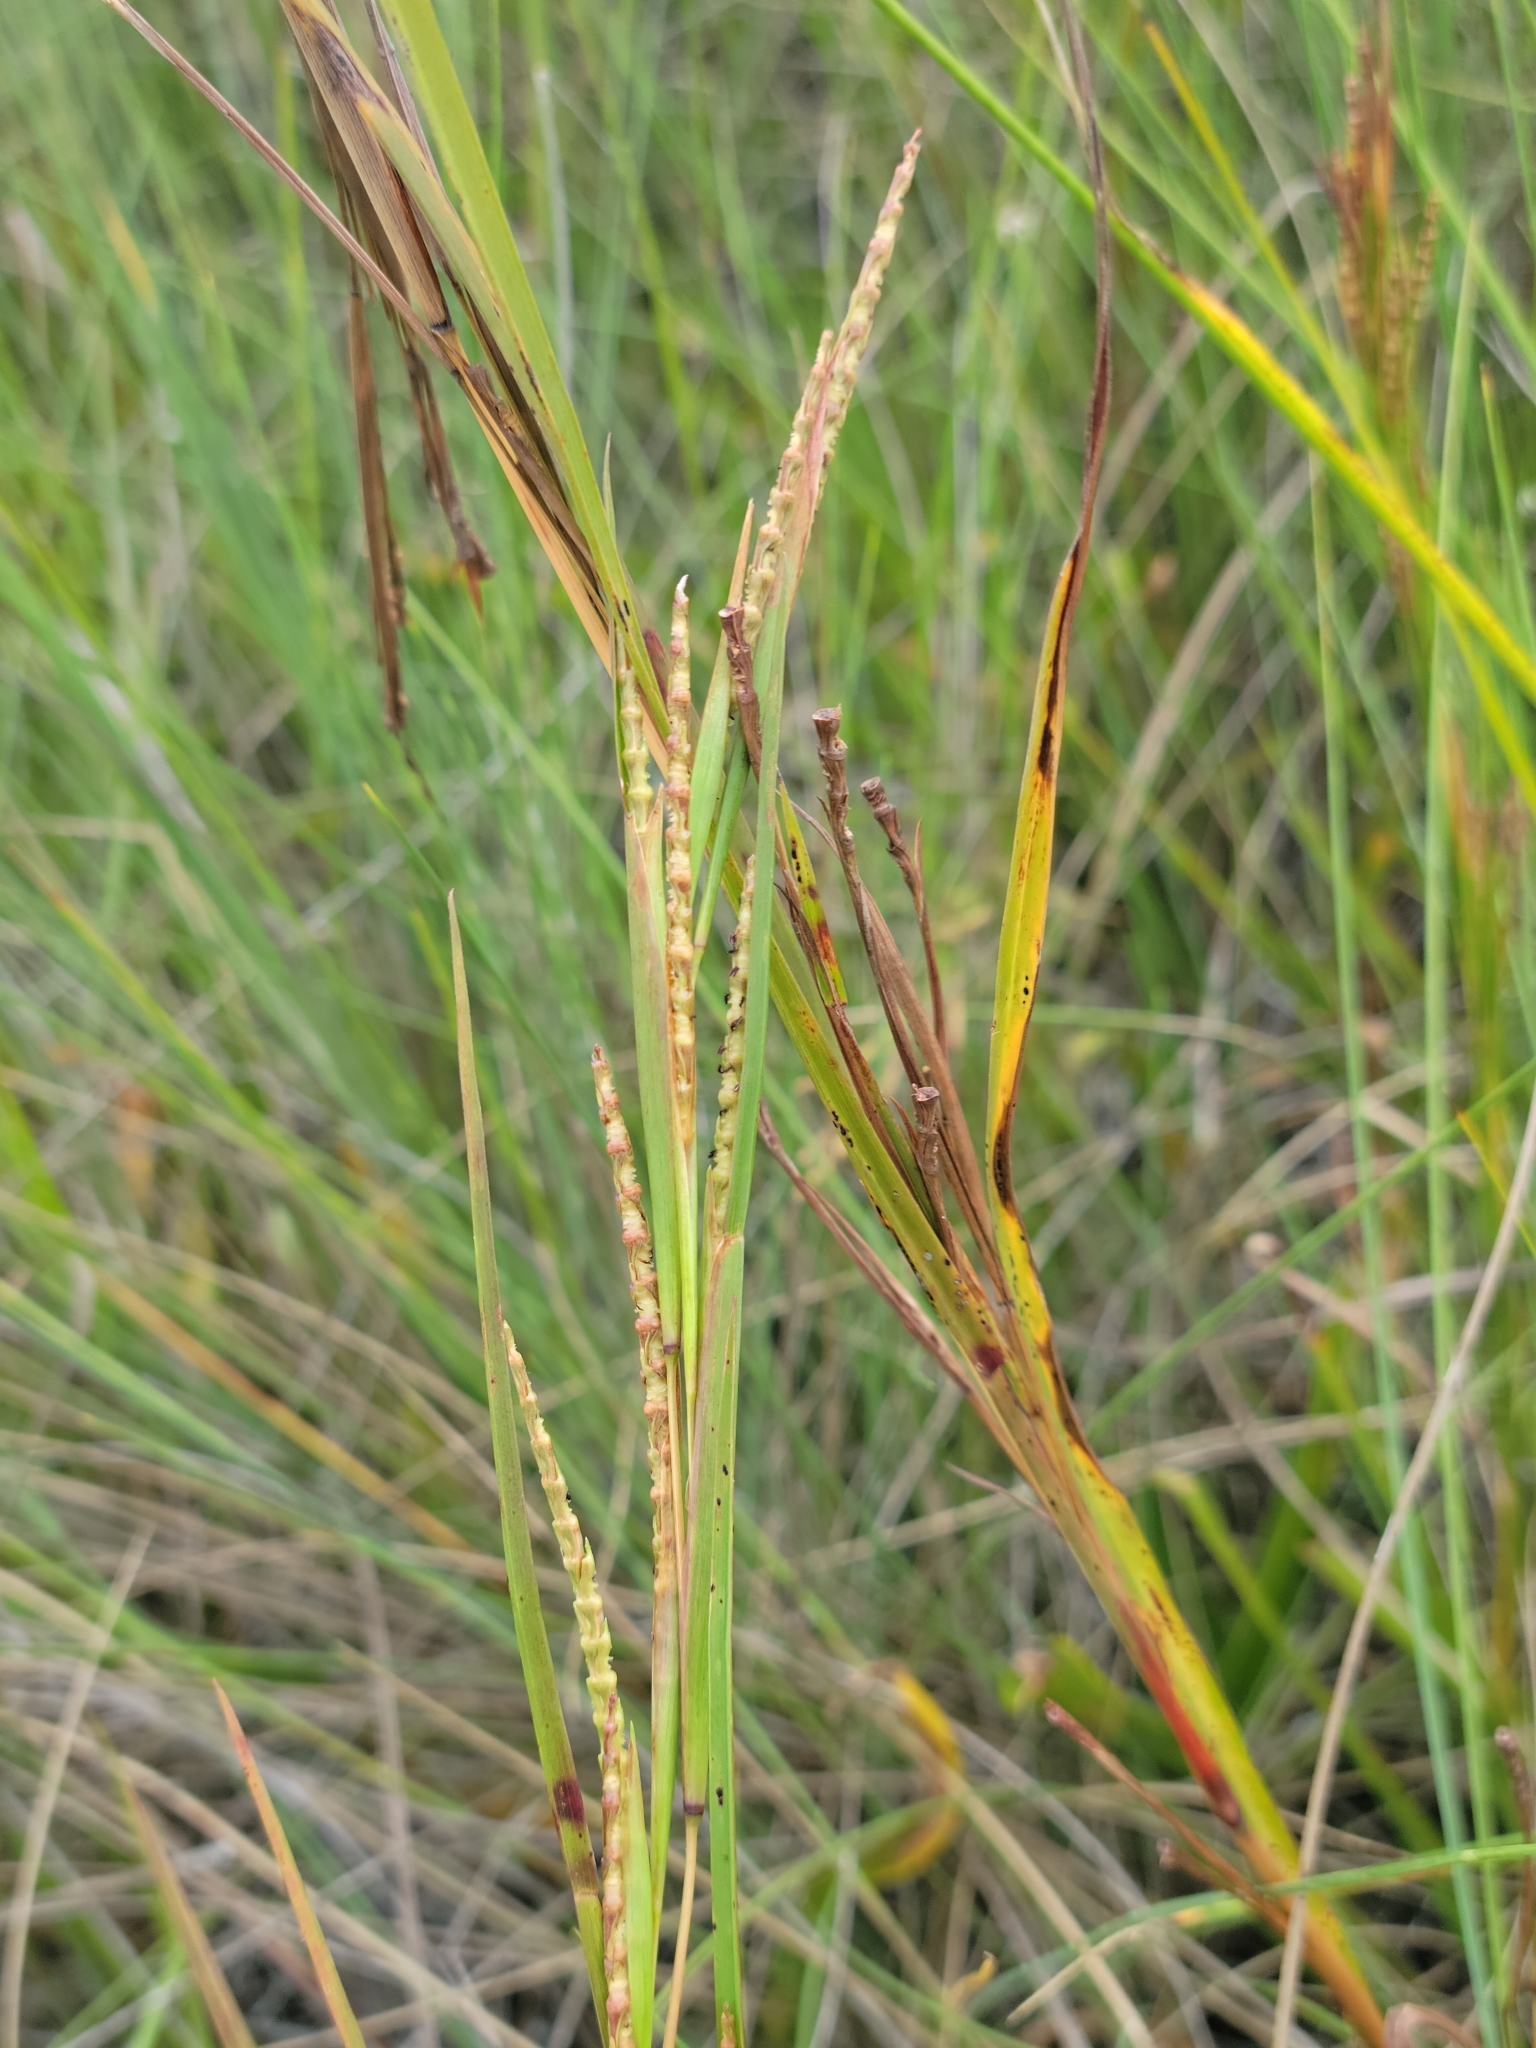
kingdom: Plantae
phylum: Tracheophyta
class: Liliopsida
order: Poales
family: Poaceae
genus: Rottboellia
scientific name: Rottboellia rugosa
